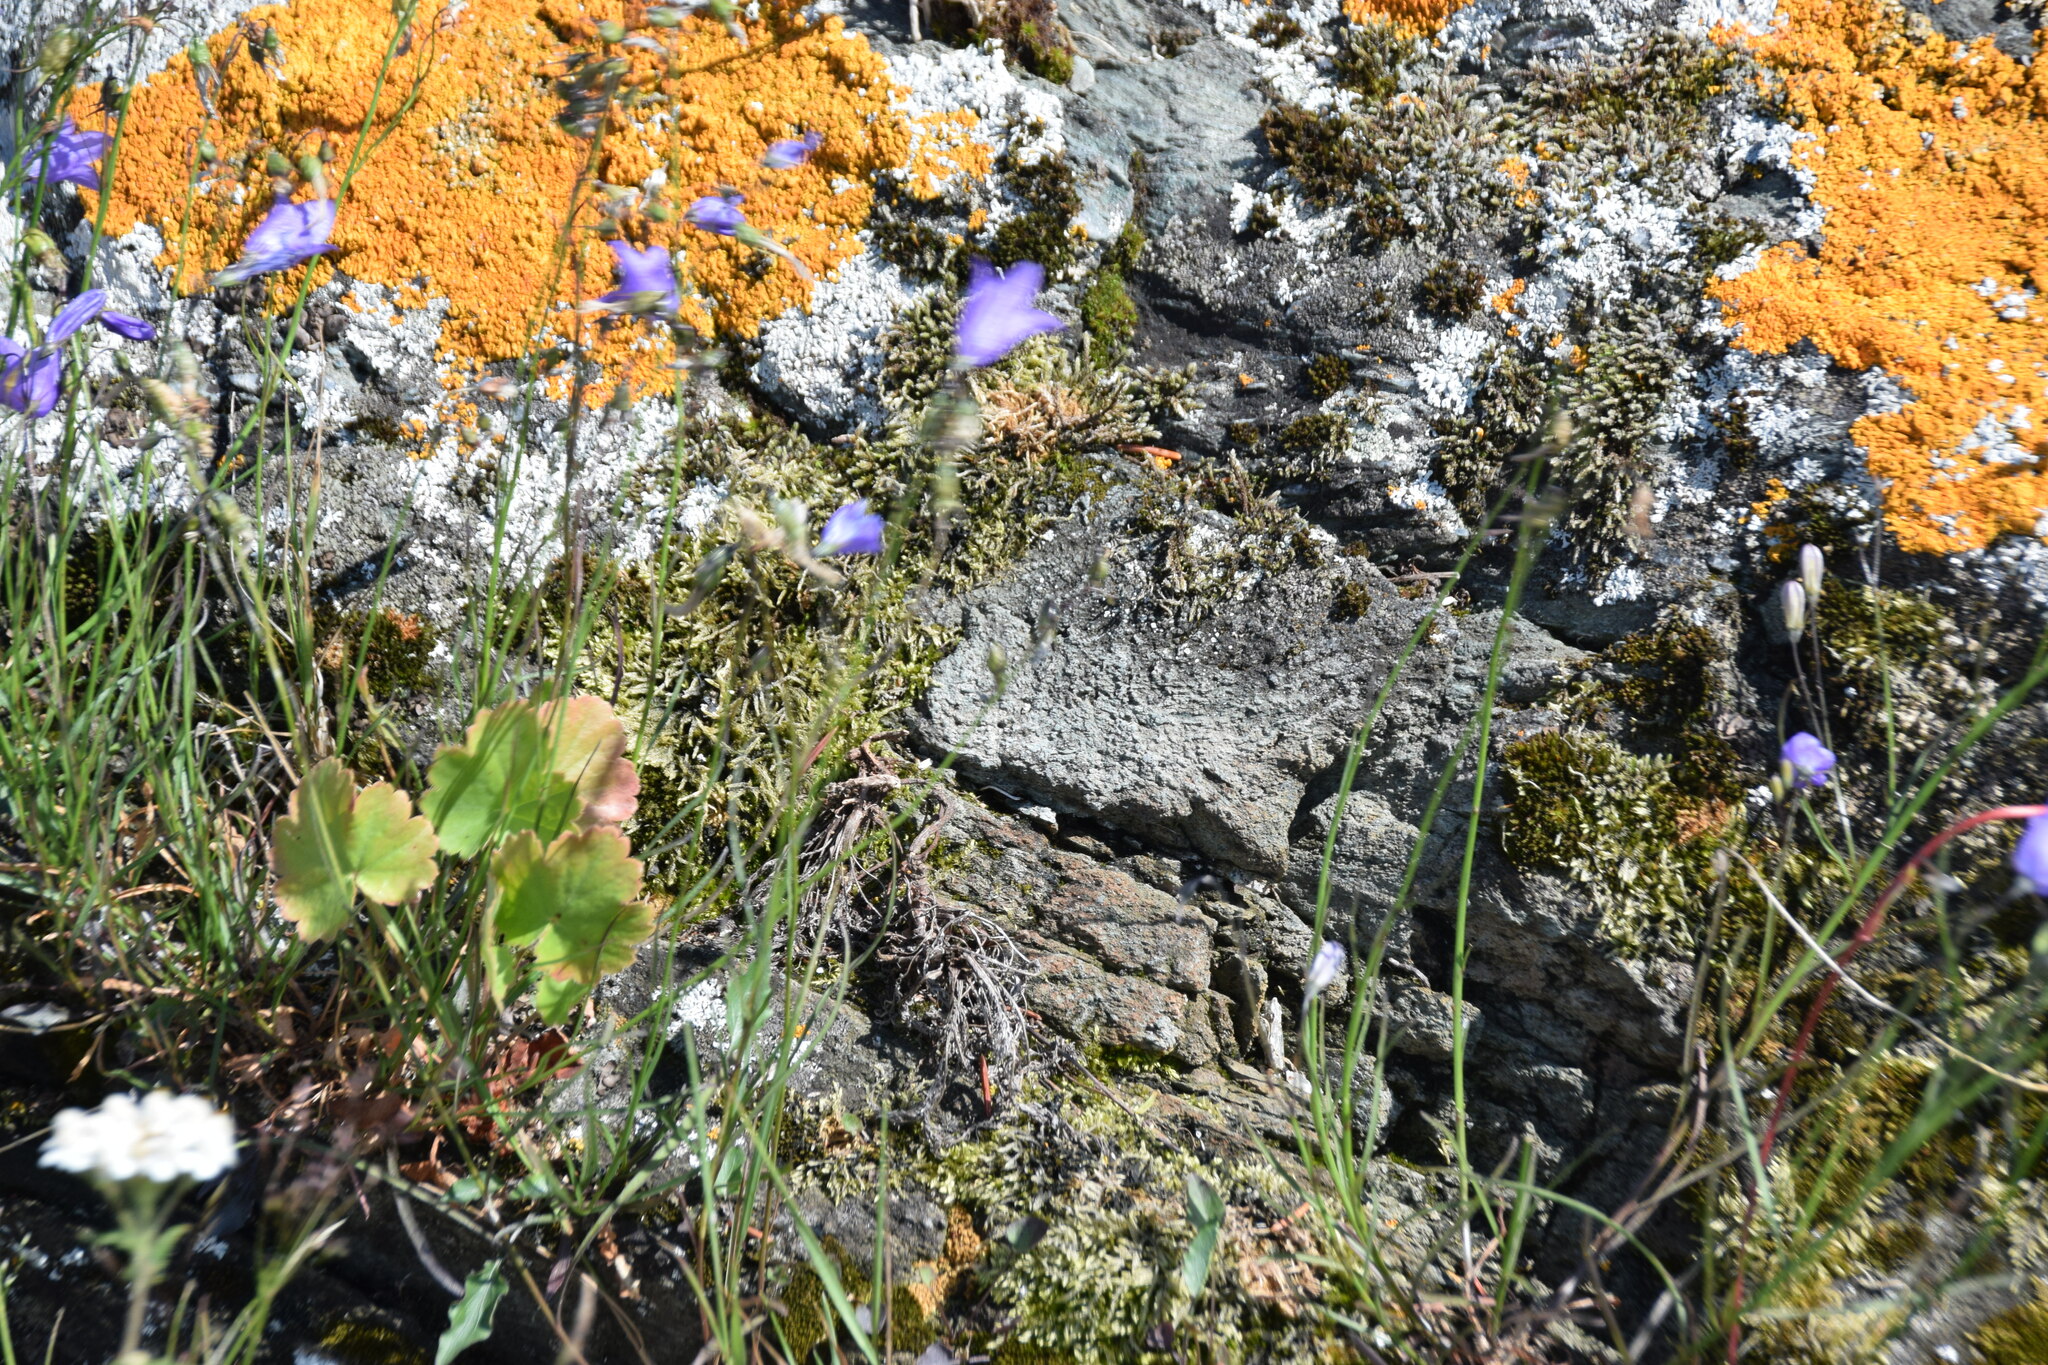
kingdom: Plantae
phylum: Tracheophyta
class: Magnoliopsida
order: Asterales
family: Campanulaceae
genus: Campanula
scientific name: Campanula petiolata
